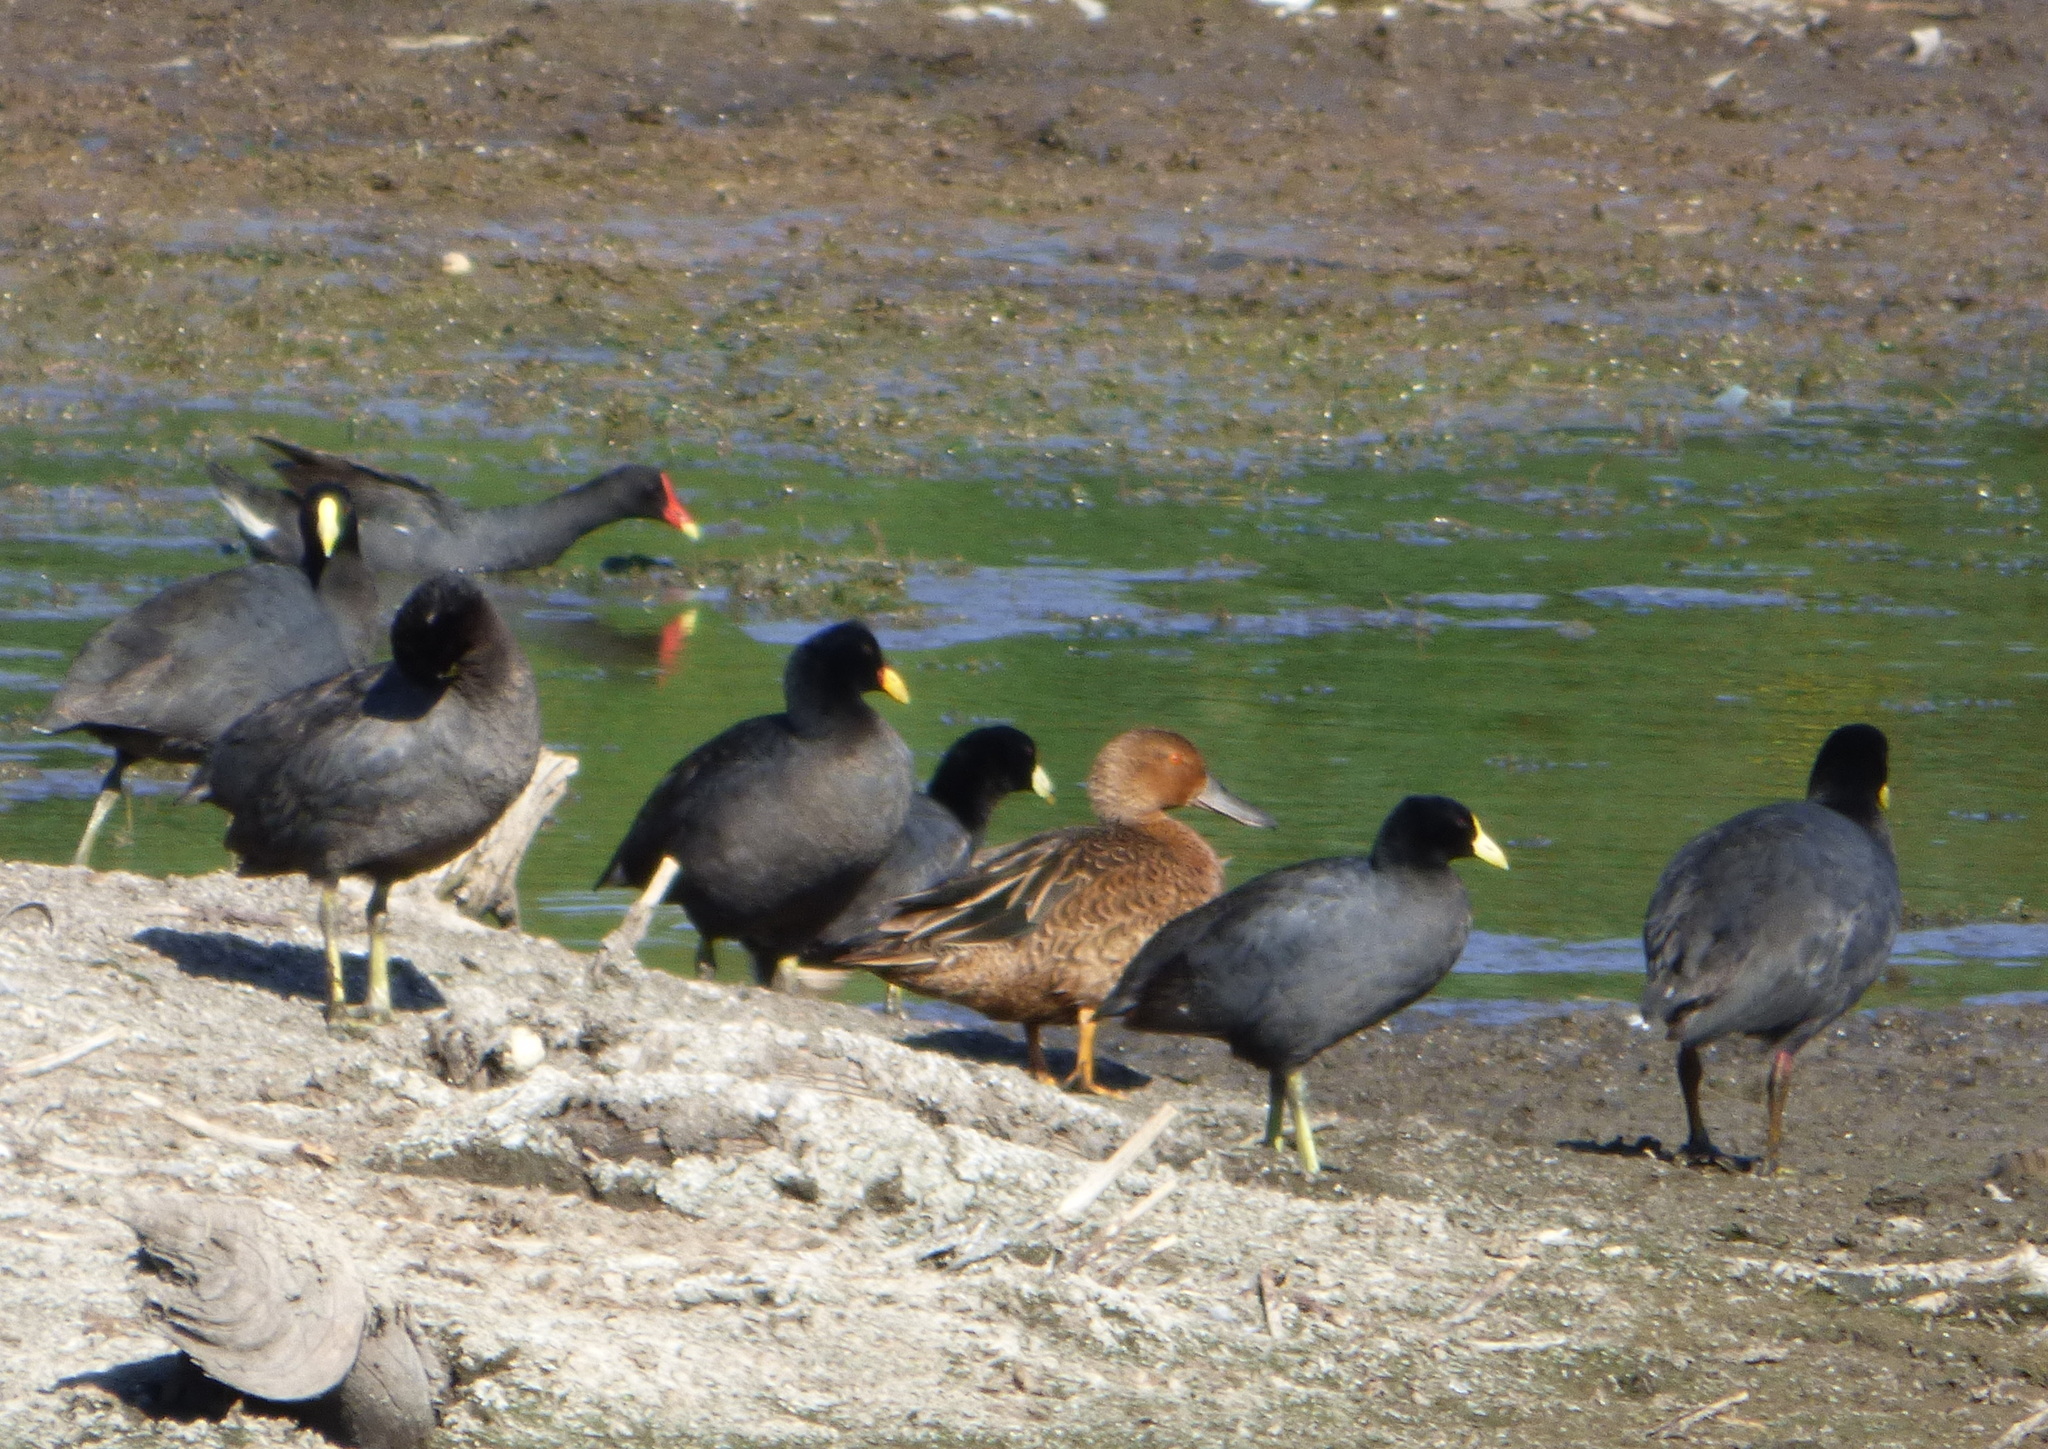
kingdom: Animalia
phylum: Chordata
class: Aves
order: Anseriformes
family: Anatidae
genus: Spatula
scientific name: Spatula cyanoptera
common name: Cinnamon teal
